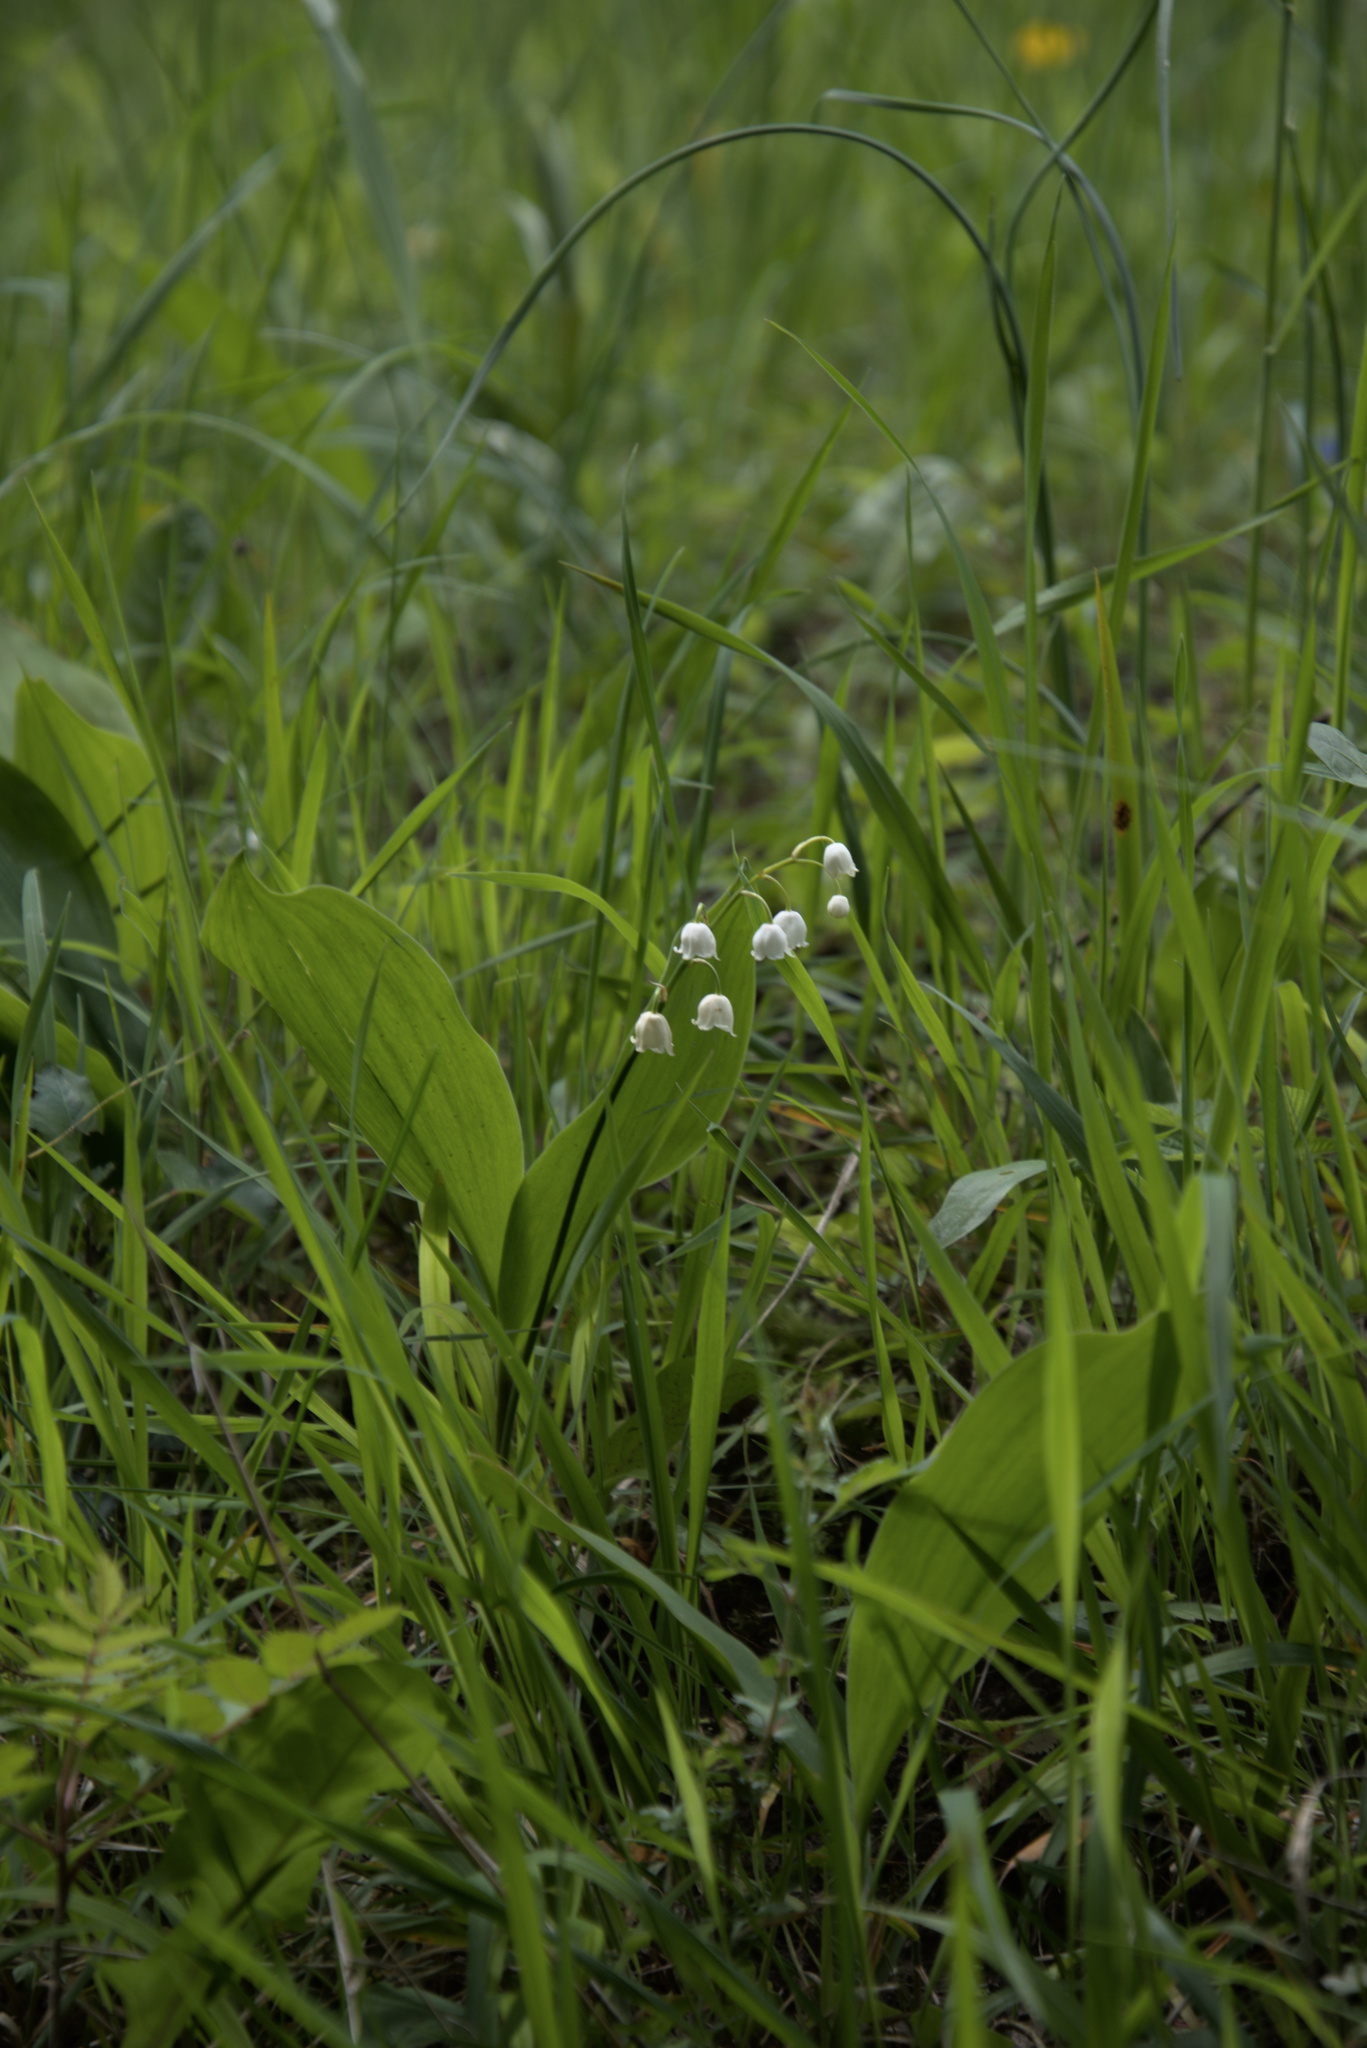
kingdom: Plantae
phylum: Tracheophyta
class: Liliopsida
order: Asparagales
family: Asparagaceae
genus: Convallaria
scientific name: Convallaria majalis
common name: Lily-of-the-valley
